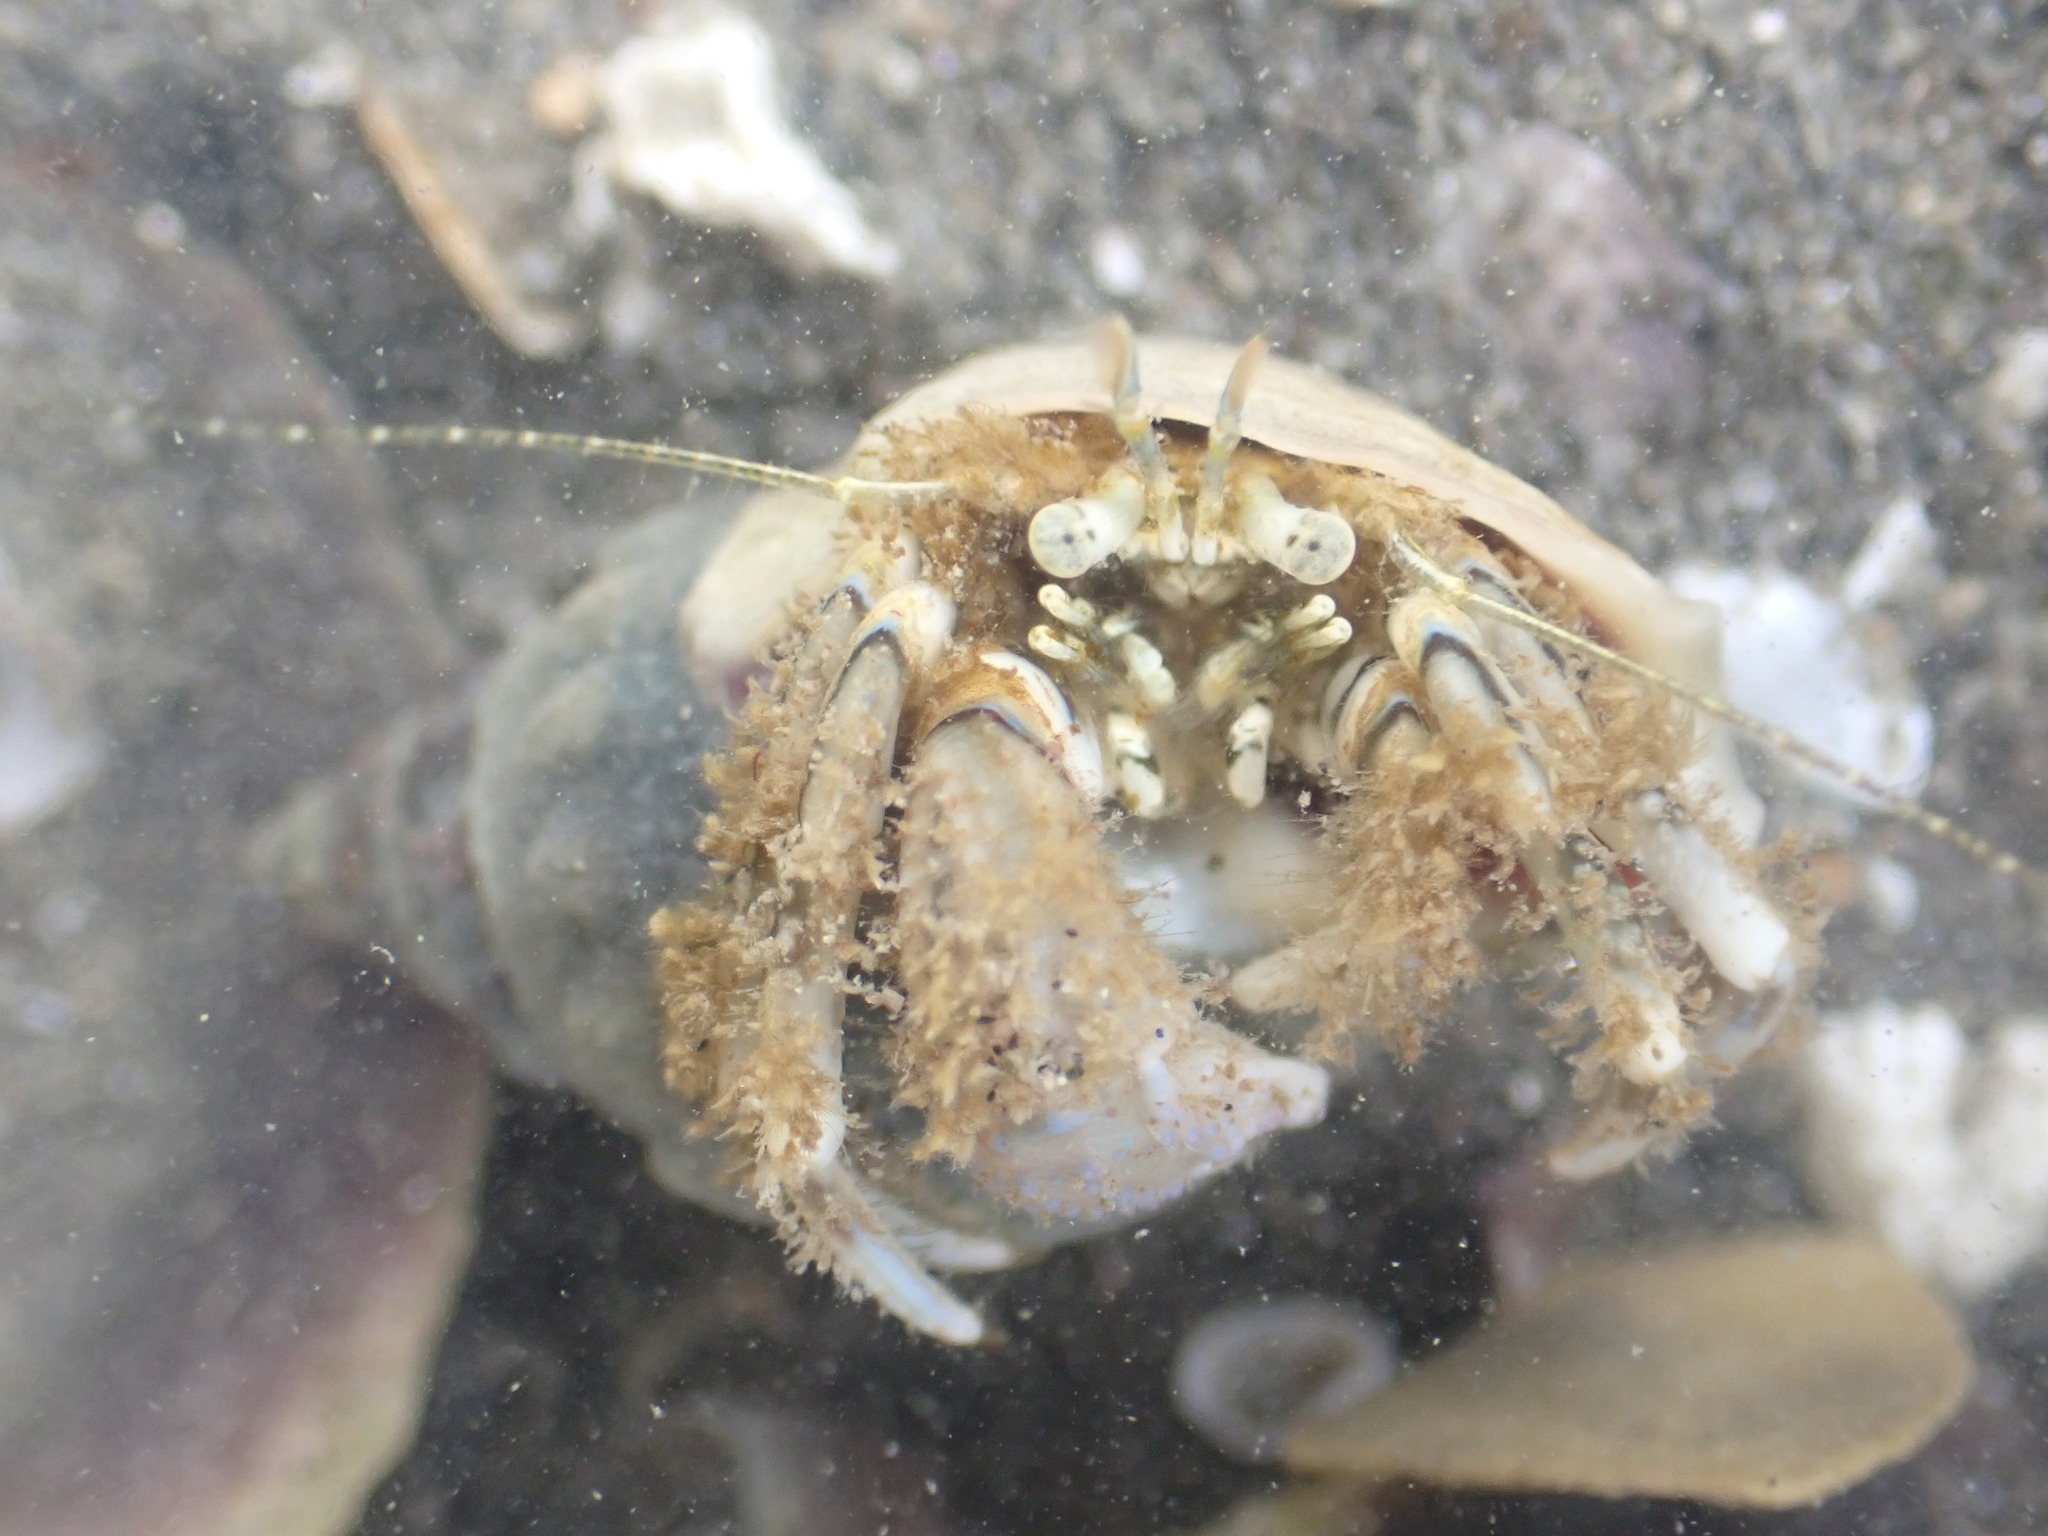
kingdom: Animalia
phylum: Arthropoda
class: Malacostraca
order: Decapoda
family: Paguridae
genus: Pagurus
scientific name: Pagurus novizealandiae
